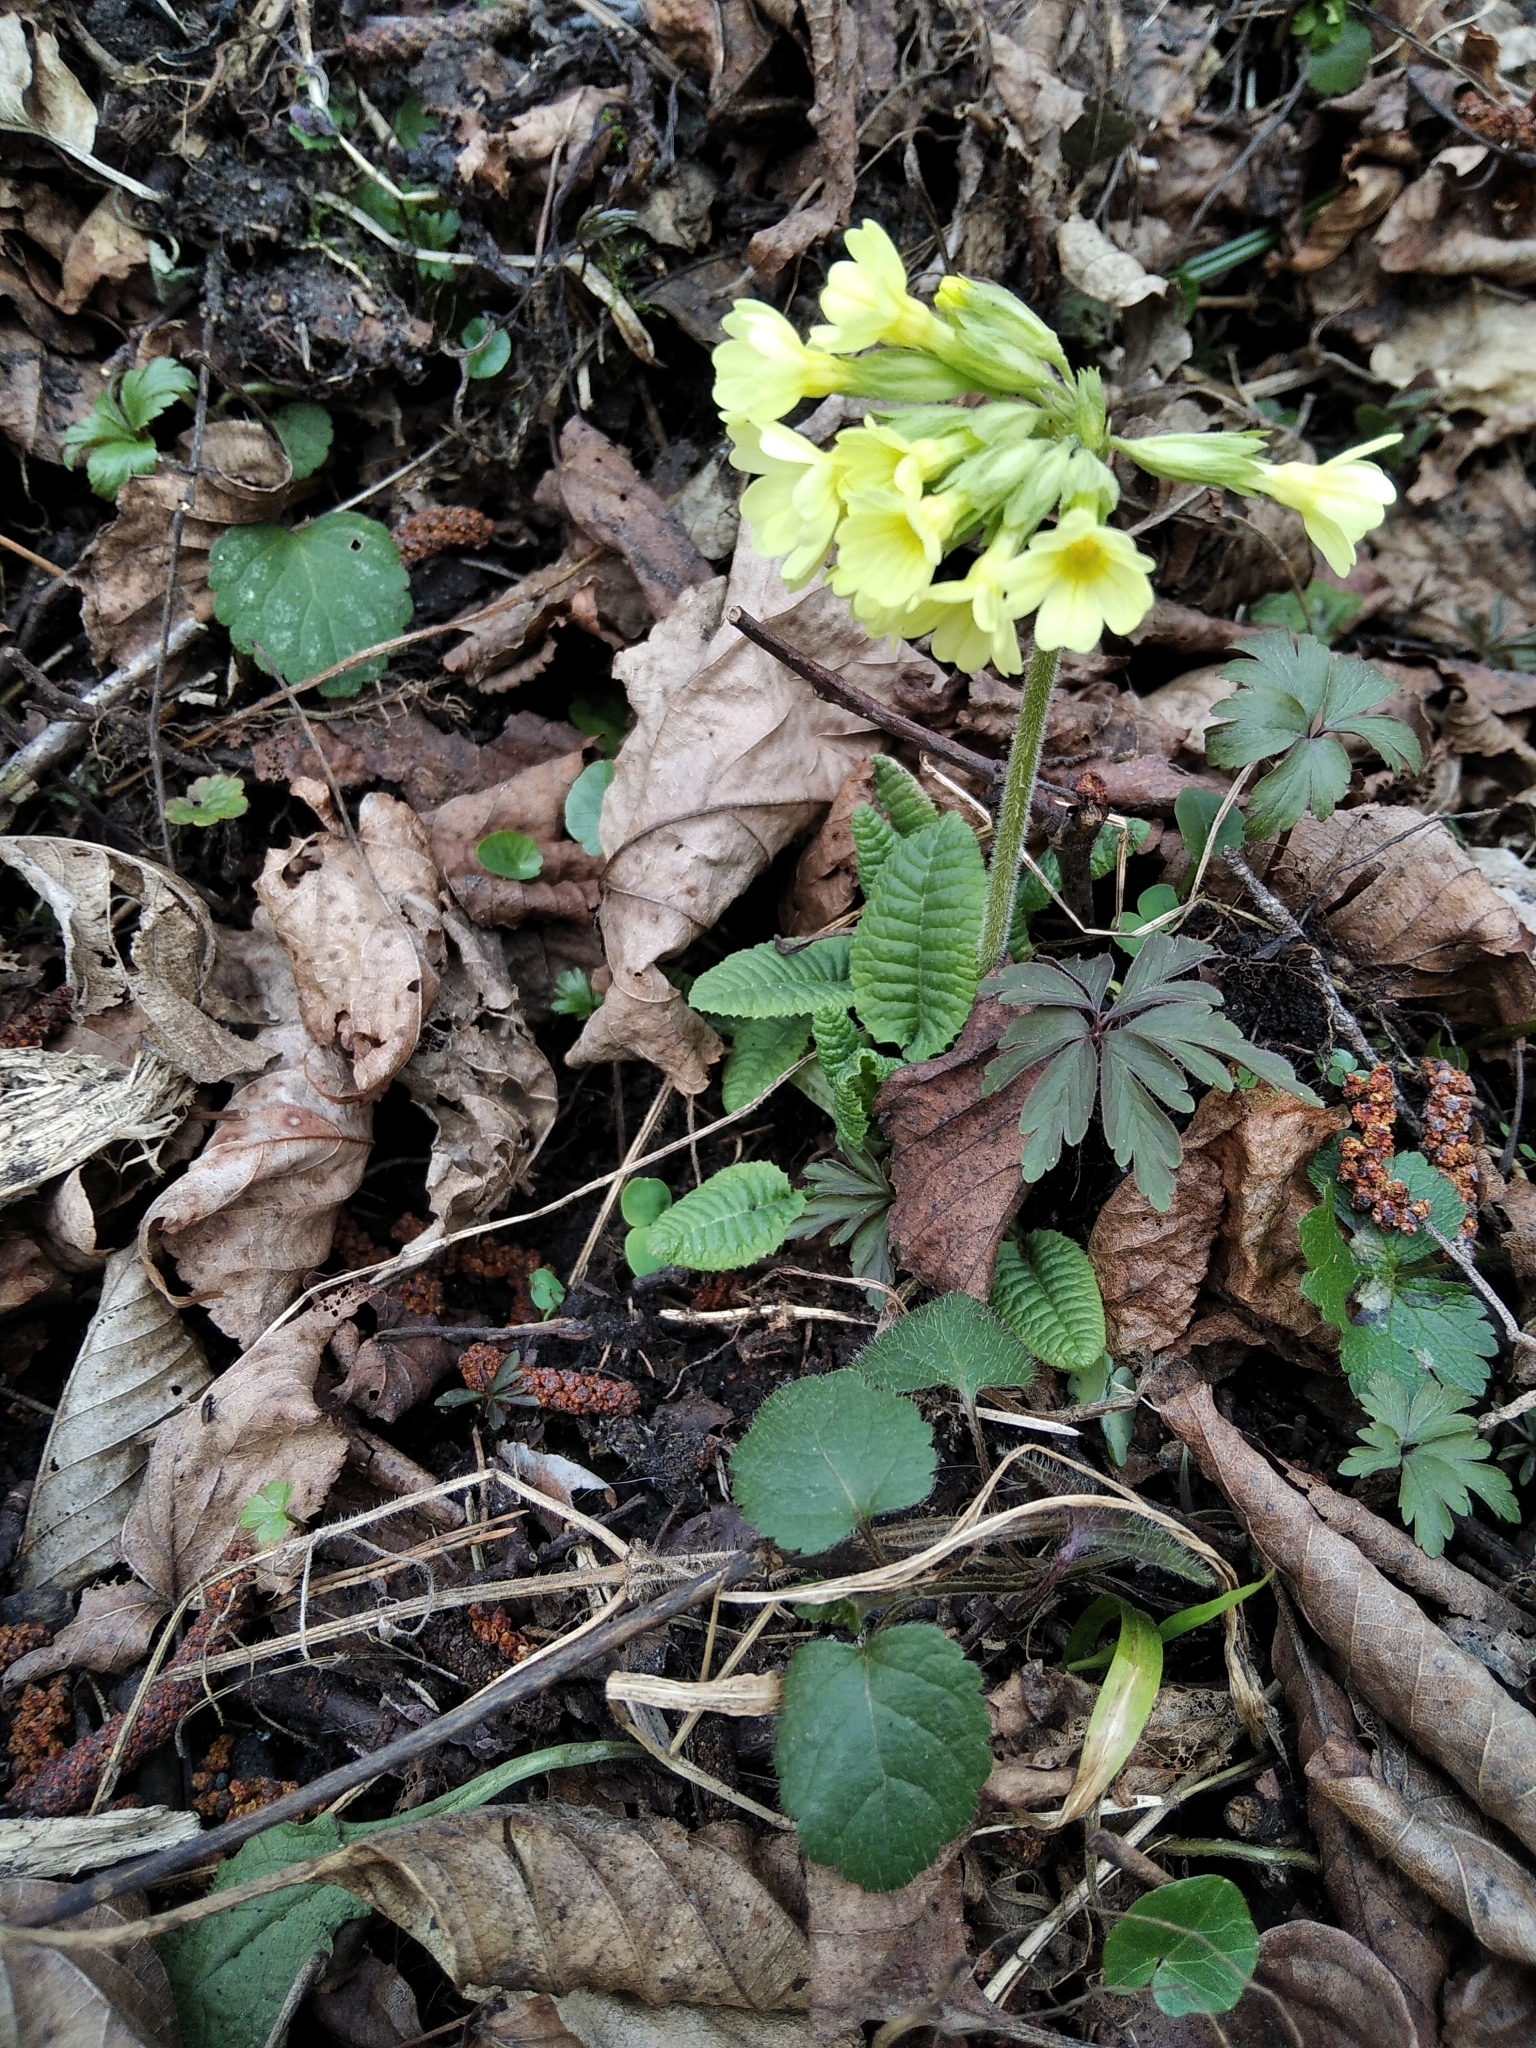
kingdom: Plantae
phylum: Tracheophyta
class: Magnoliopsida
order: Ericales
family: Primulaceae
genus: Primula
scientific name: Primula elatior
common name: Oxlip
